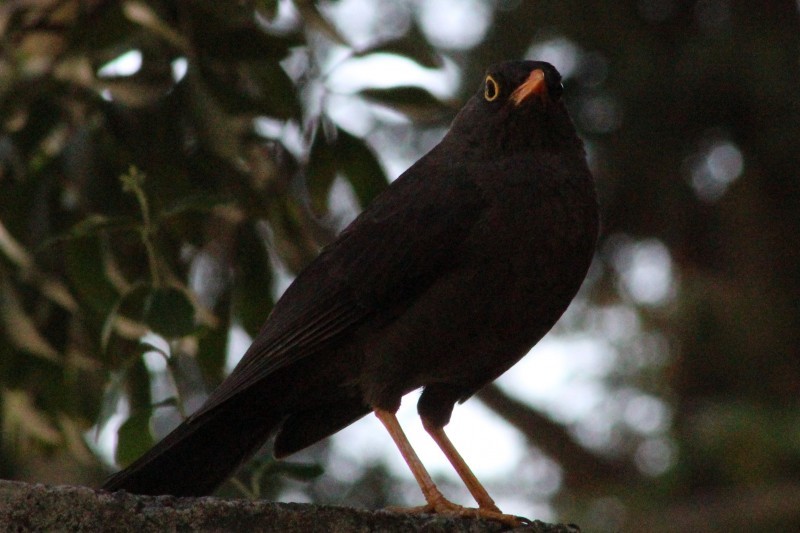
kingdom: Animalia
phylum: Chordata
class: Aves
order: Passeriformes
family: Turdidae
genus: Turdus
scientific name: Turdus fuscater
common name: Great thrush
